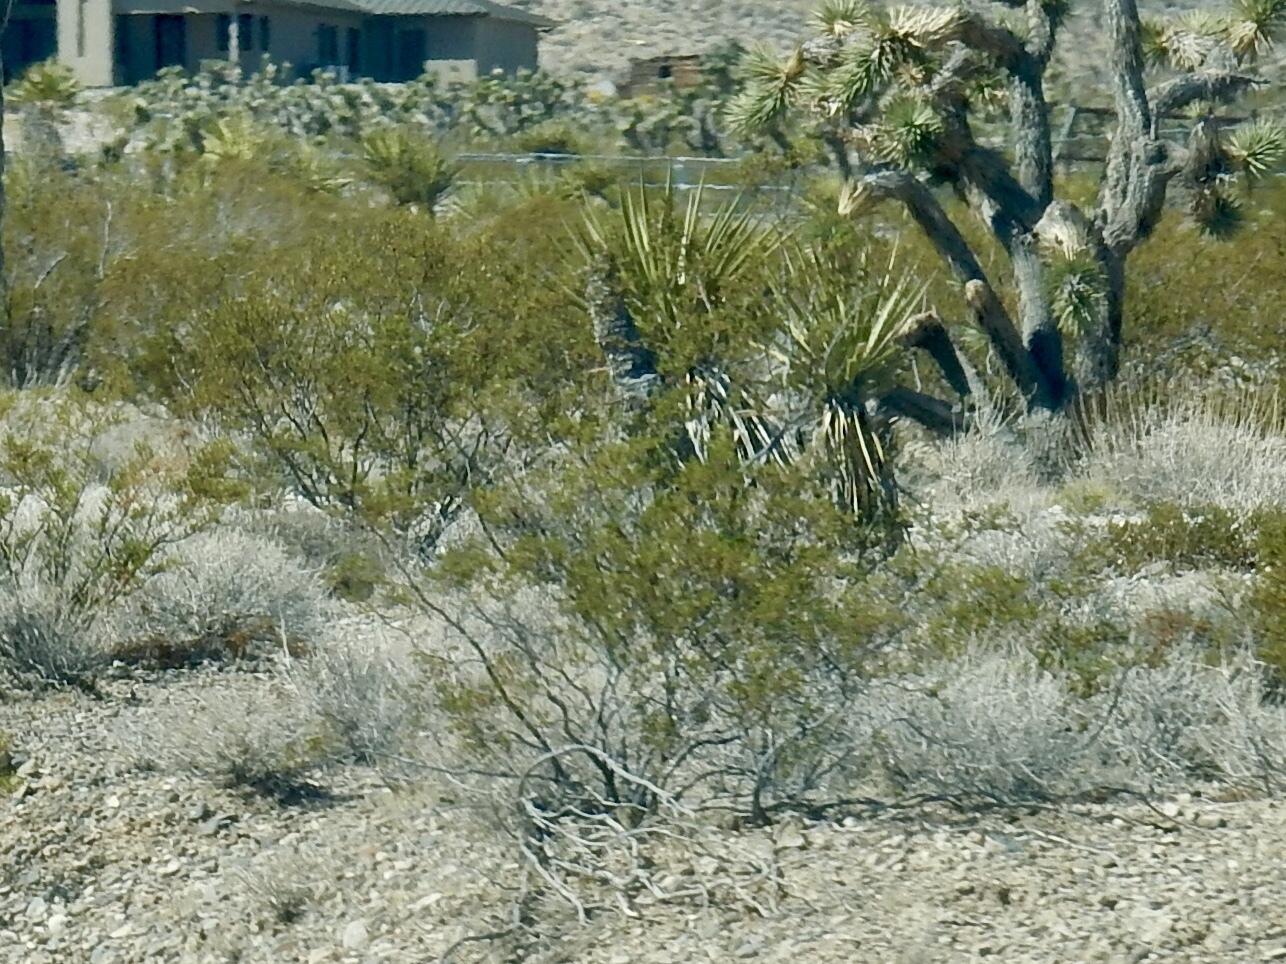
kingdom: Plantae
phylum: Tracheophyta
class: Magnoliopsida
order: Zygophyllales
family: Zygophyllaceae
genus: Larrea
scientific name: Larrea tridentata
